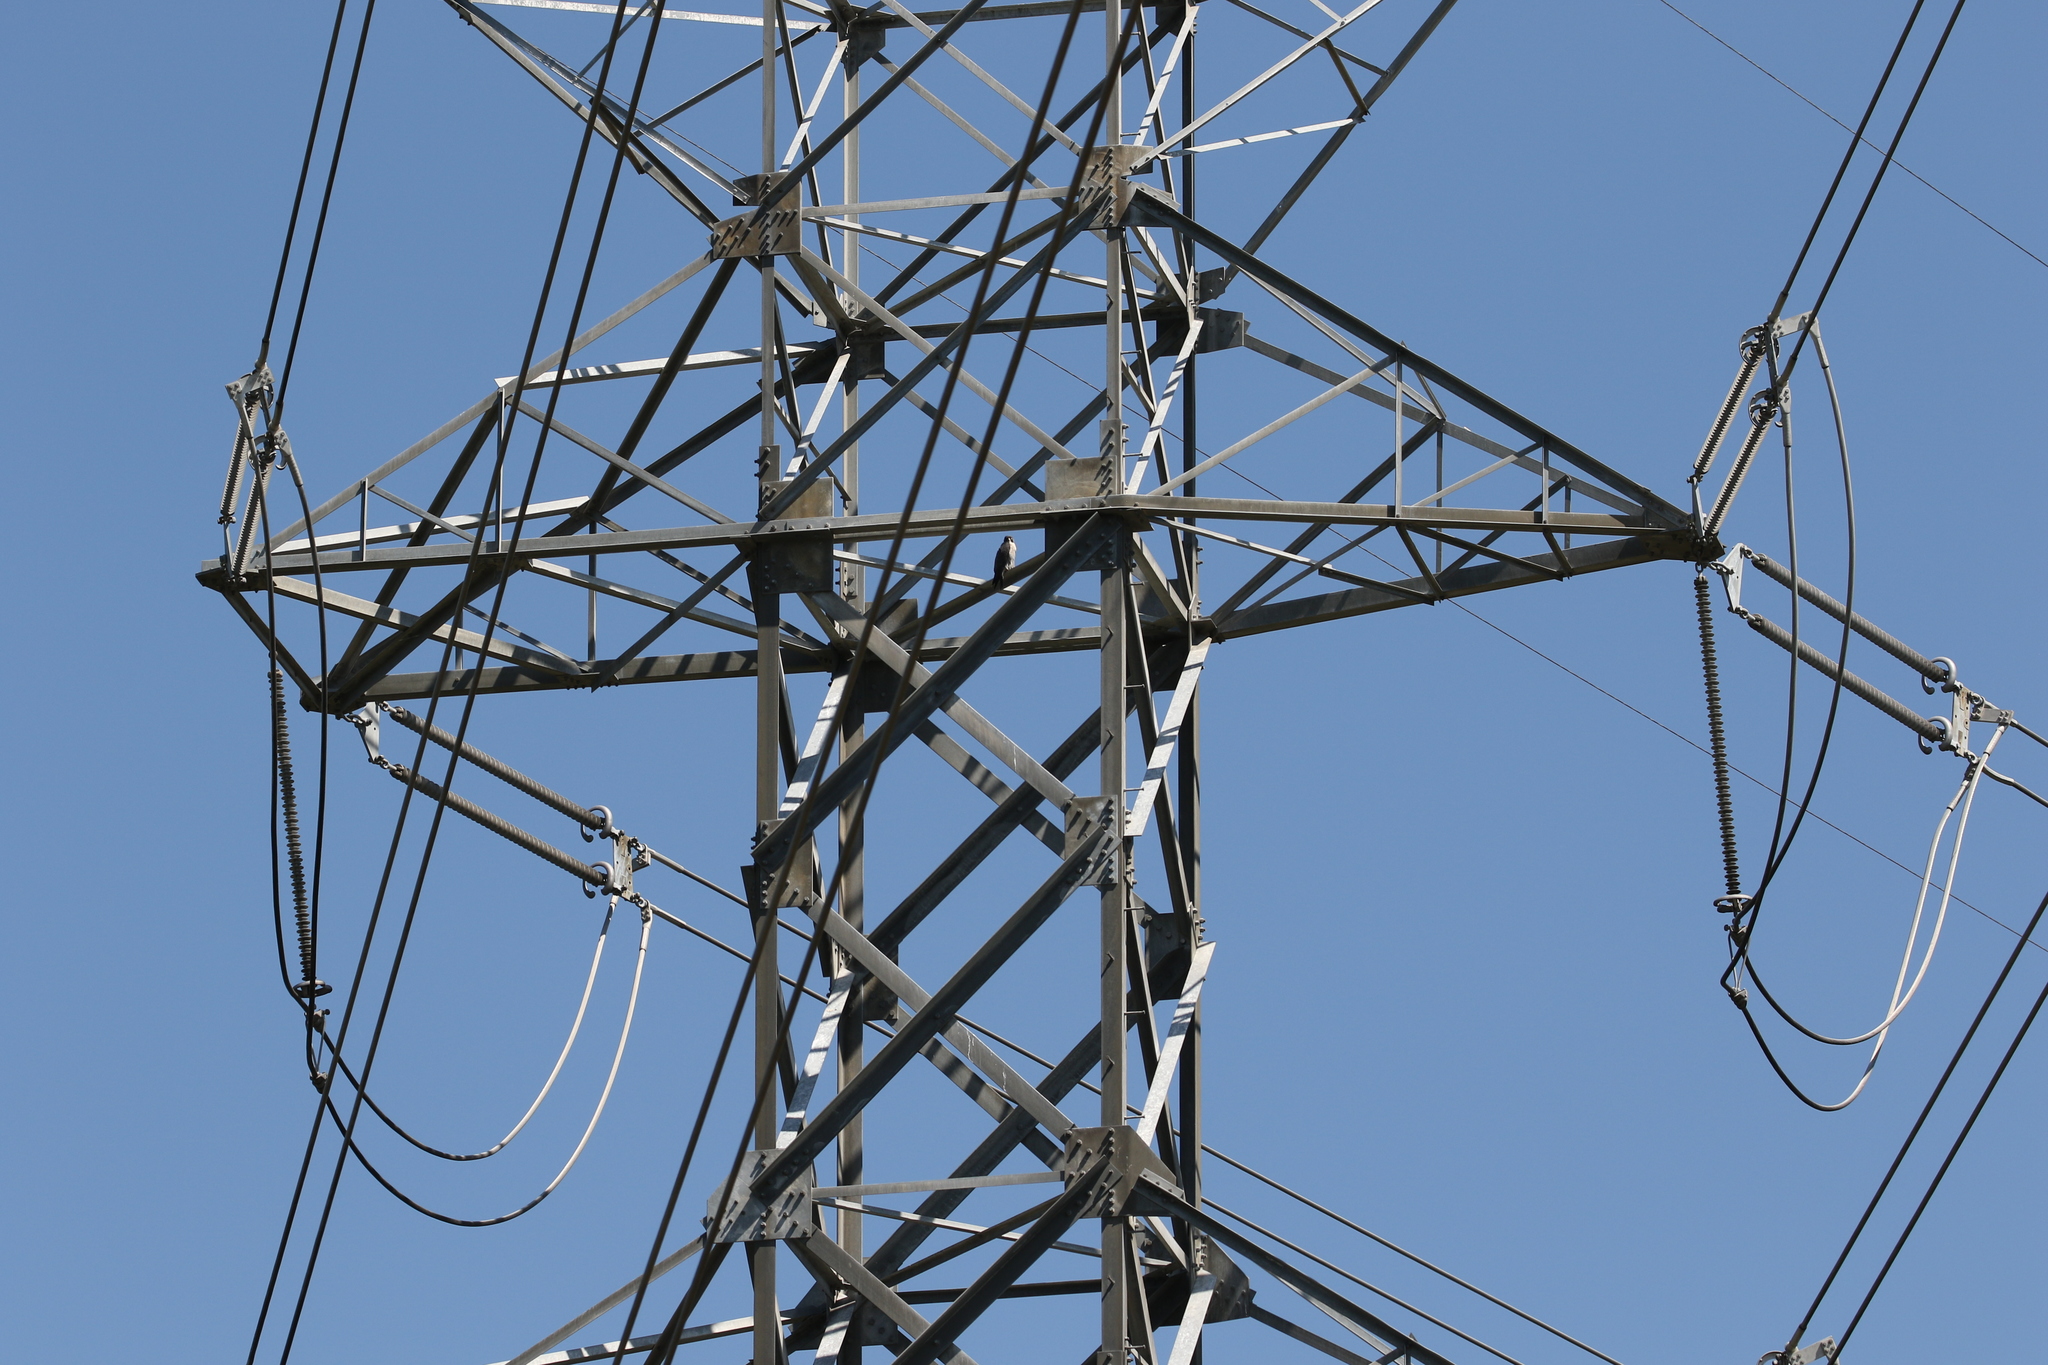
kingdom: Animalia
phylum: Chordata
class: Aves
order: Falconiformes
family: Falconidae
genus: Falco
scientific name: Falco peregrinus
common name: Peregrine falcon
